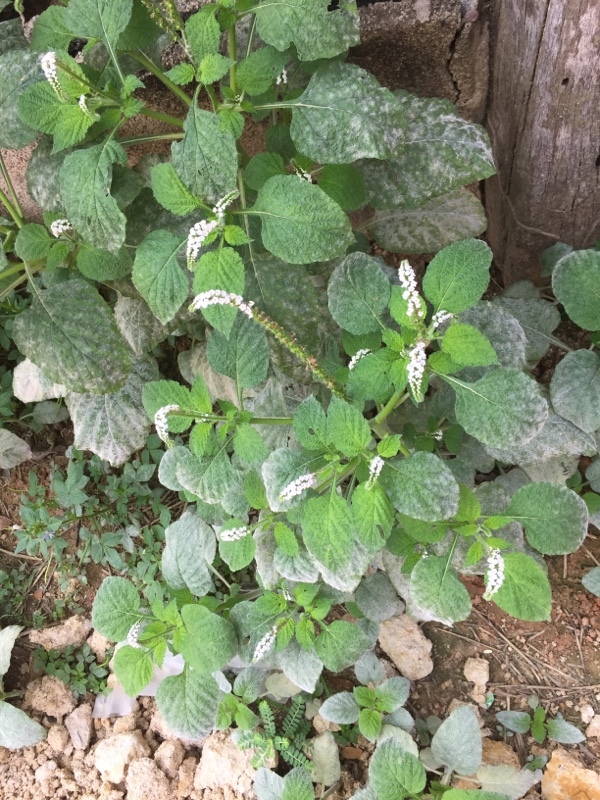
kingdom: Plantae
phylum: Tracheophyta
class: Magnoliopsida
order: Boraginales
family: Heliotropiaceae
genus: Heliotropium
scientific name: Heliotropium indicum
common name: Indian heliotrope
